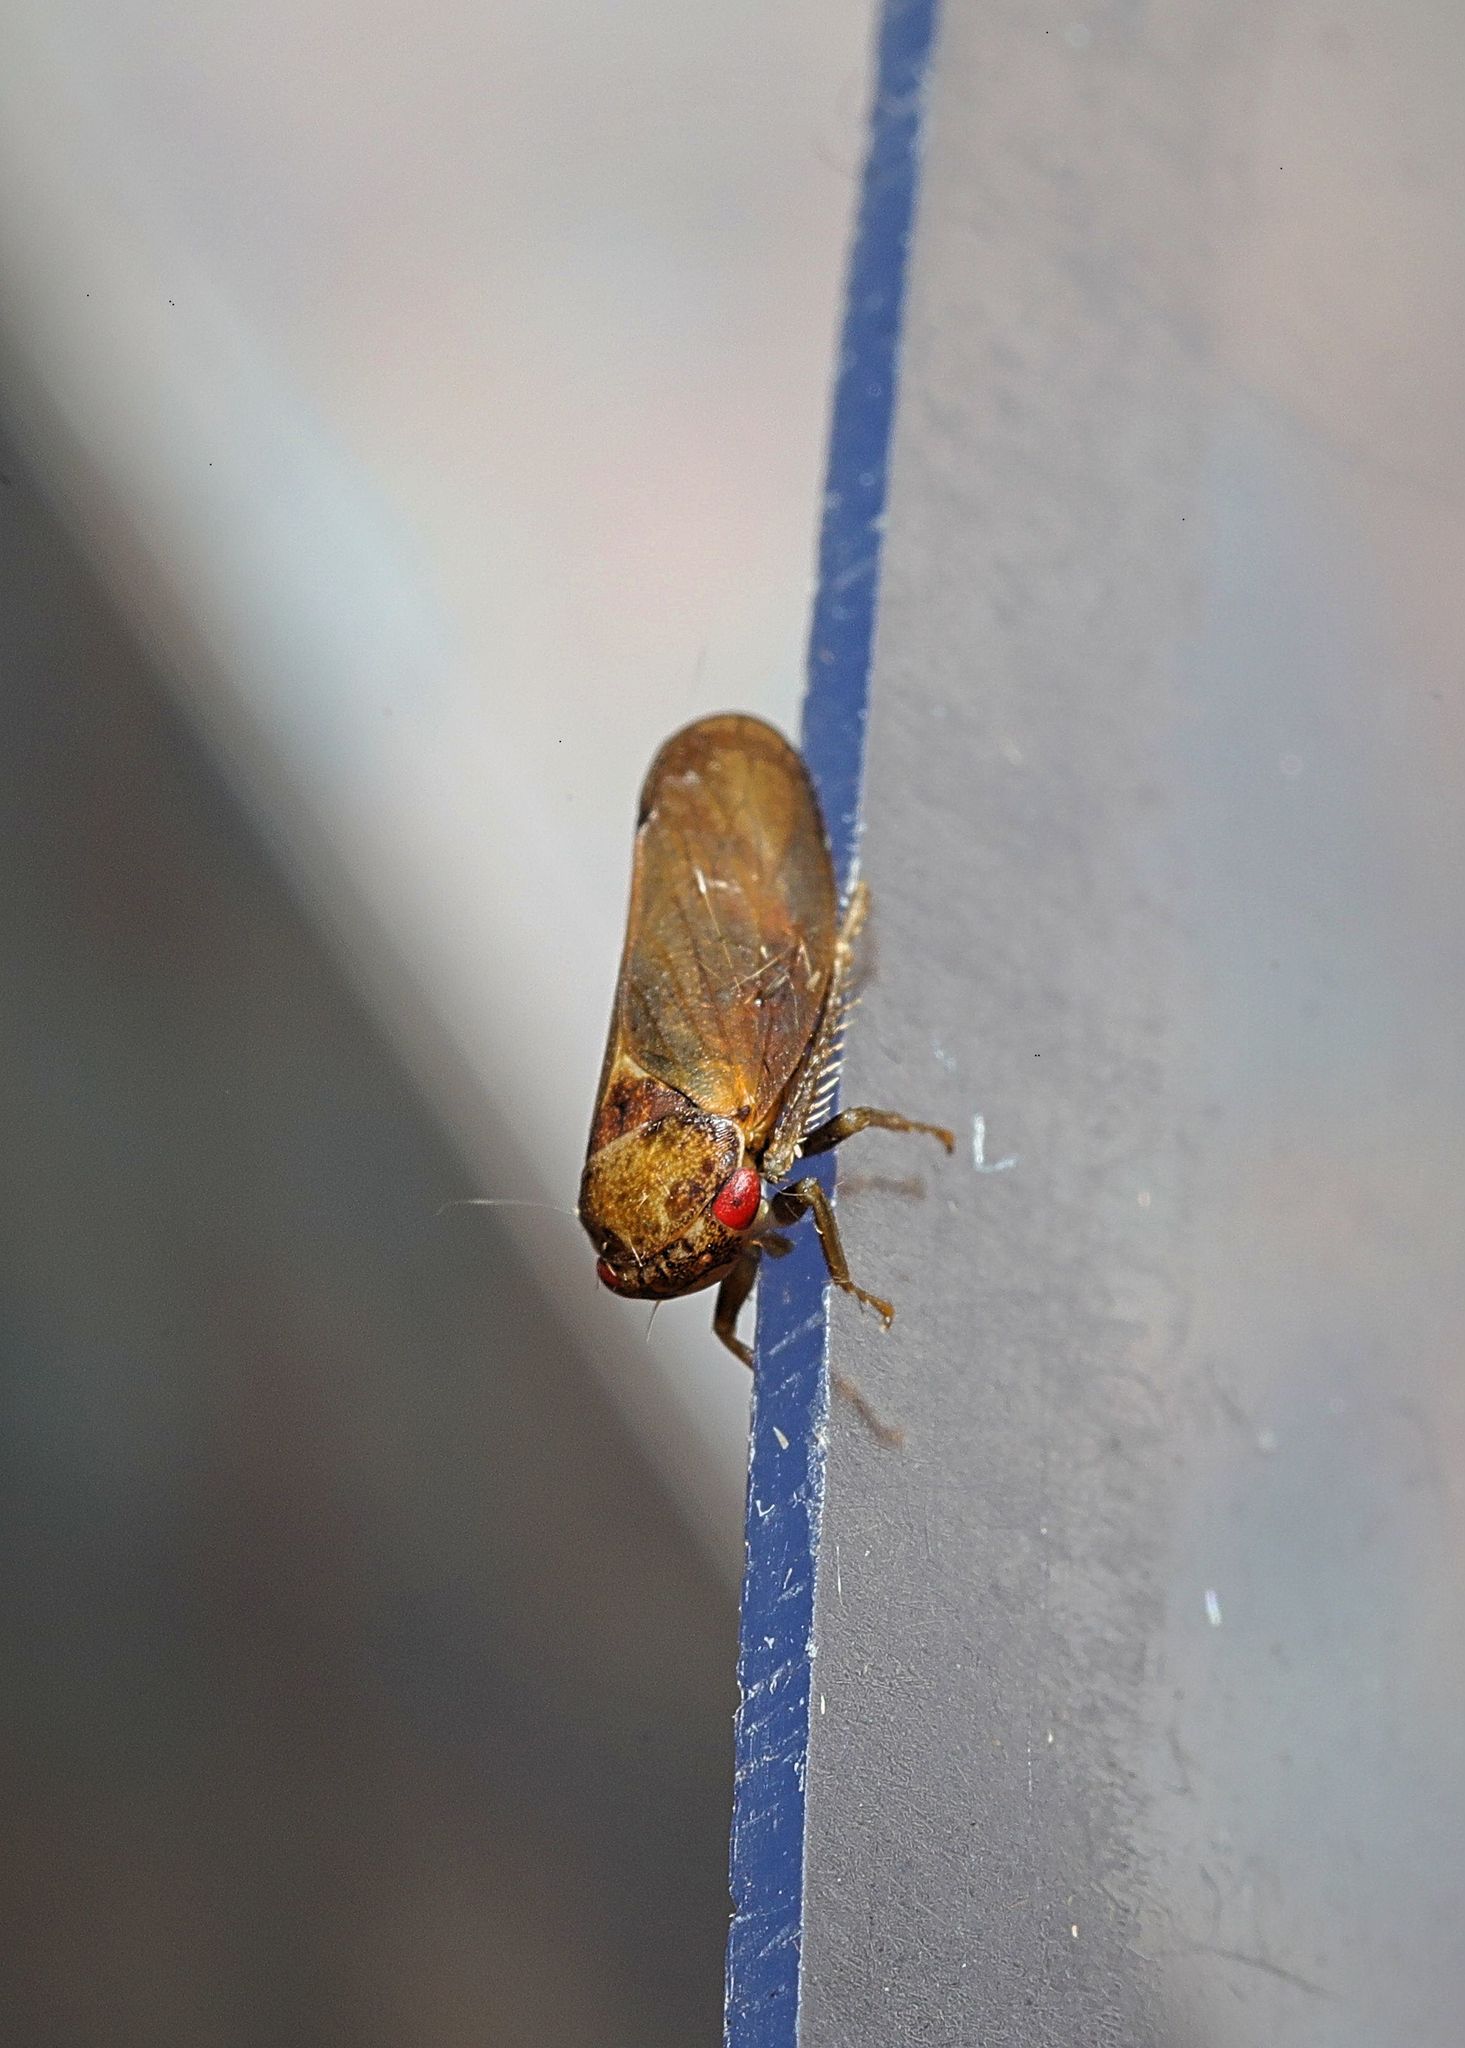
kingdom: Animalia
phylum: Arthropoda
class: Insecta
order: Hemiptera
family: Cicadellidae
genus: Iassus
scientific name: Iassus lanio
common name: Leafhopper
